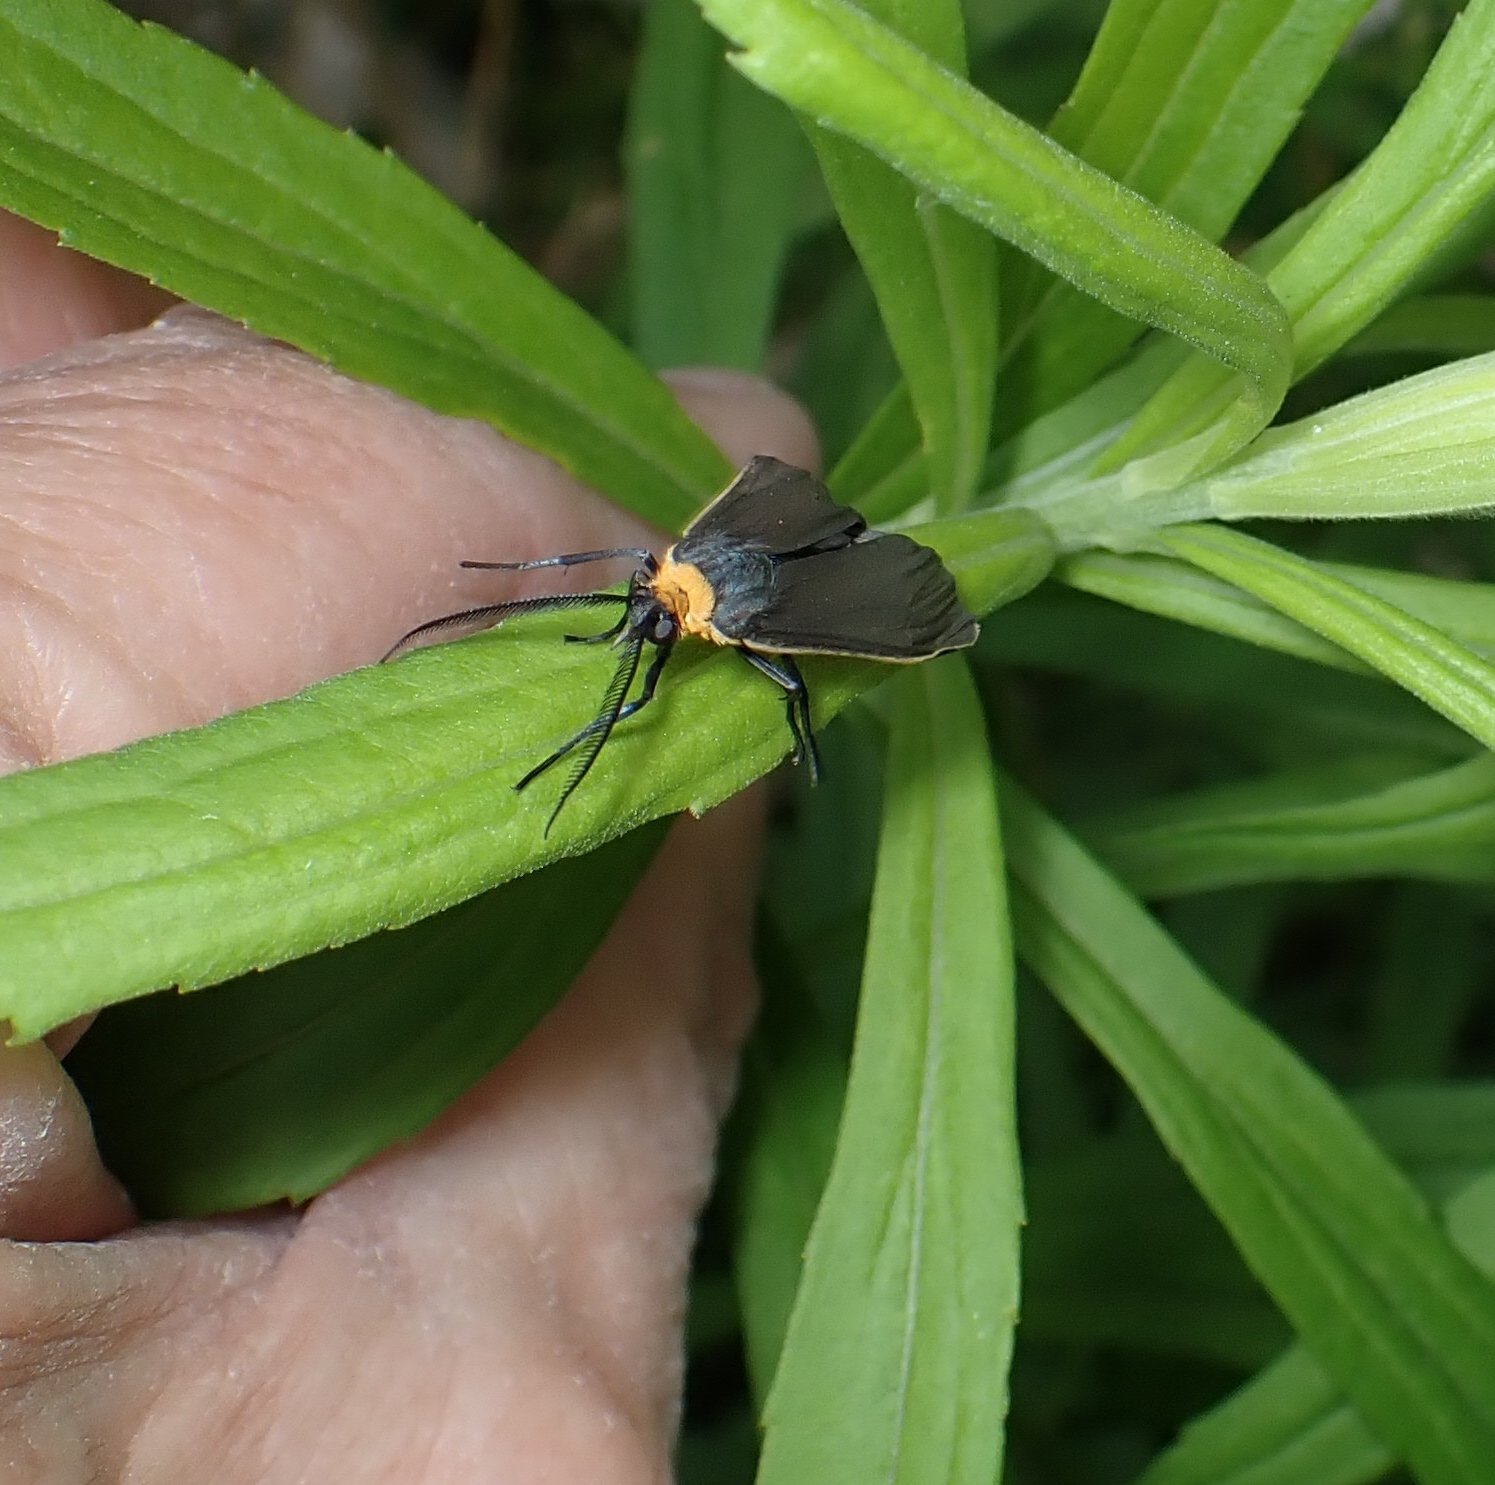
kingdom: Animalia
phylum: Arthropoda
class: Insecta
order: Lepidoptera
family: Erebidae
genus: Cisseps
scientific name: Cisseps fulvicollis
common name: Yellow-collared scape moth
